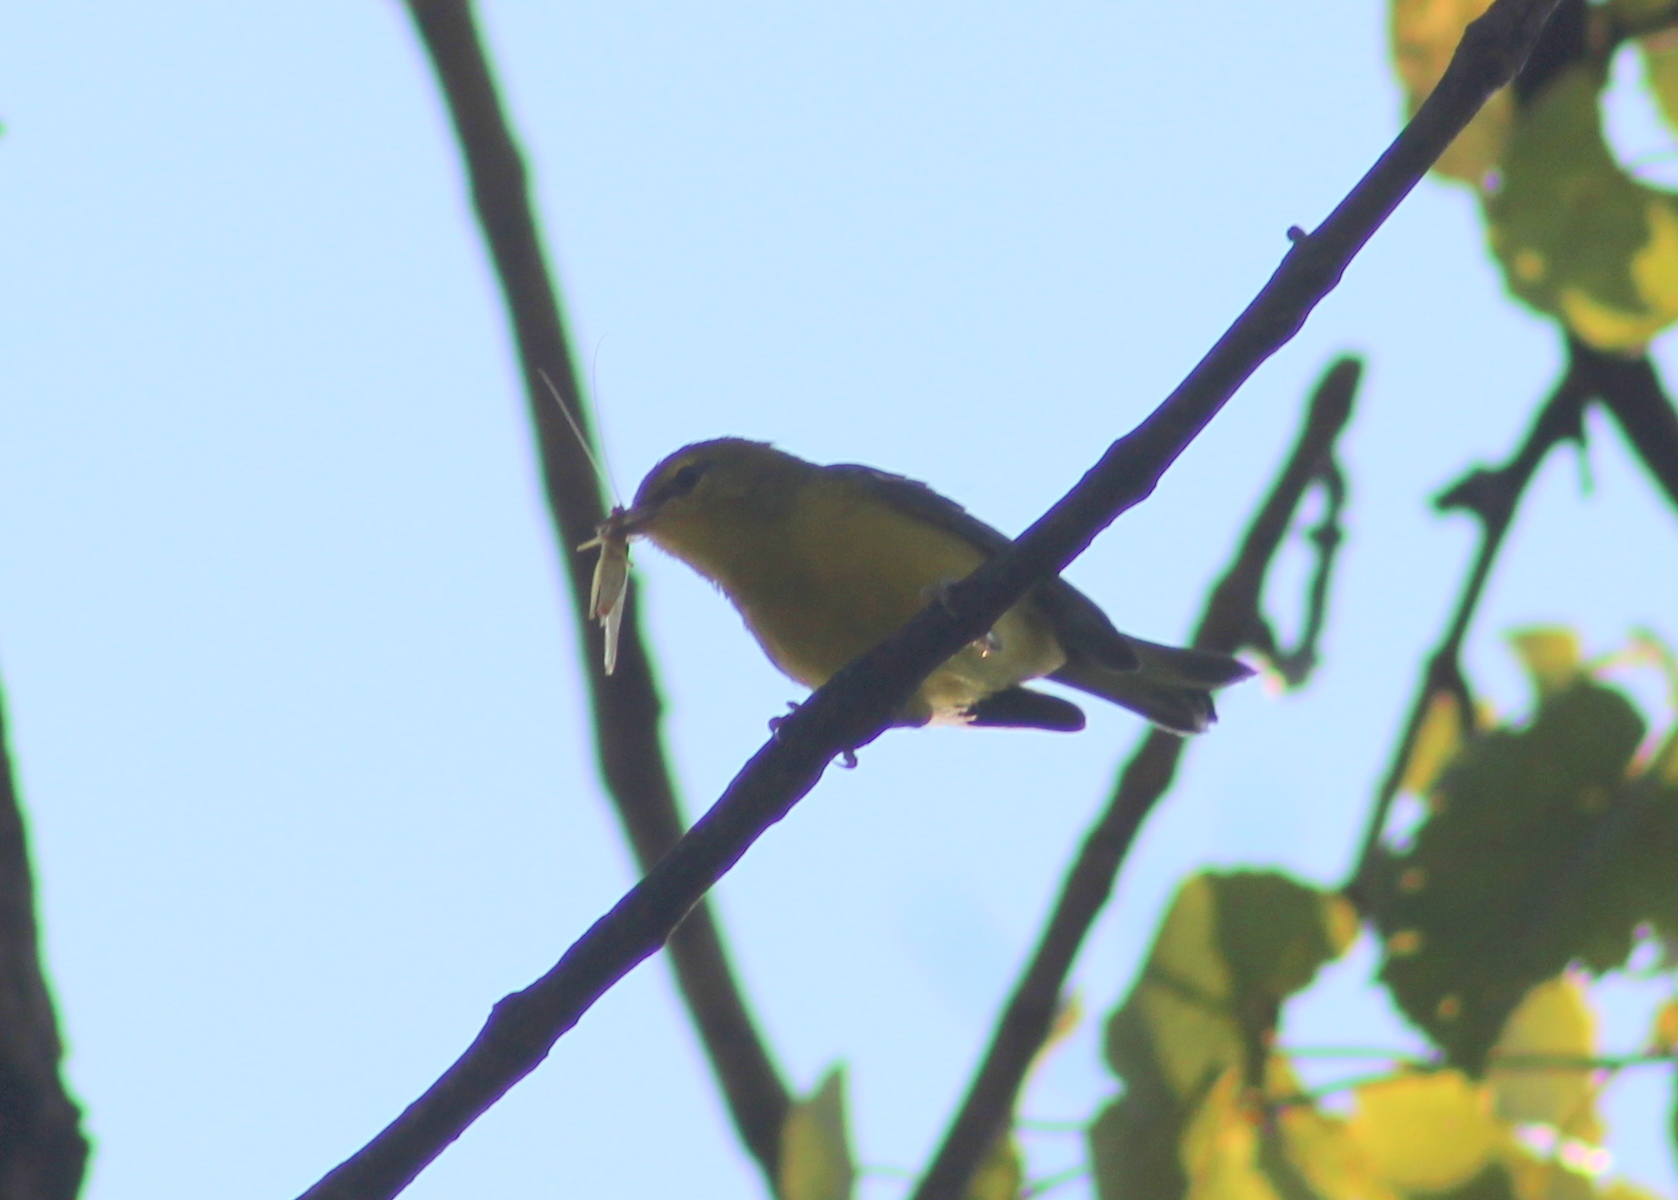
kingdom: Animalia
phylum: Chordata
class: Aves
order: Passeriformes
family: Parulidae
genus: Vermivora
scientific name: Vermivora cyanoptera
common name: Blue-winged warbler
